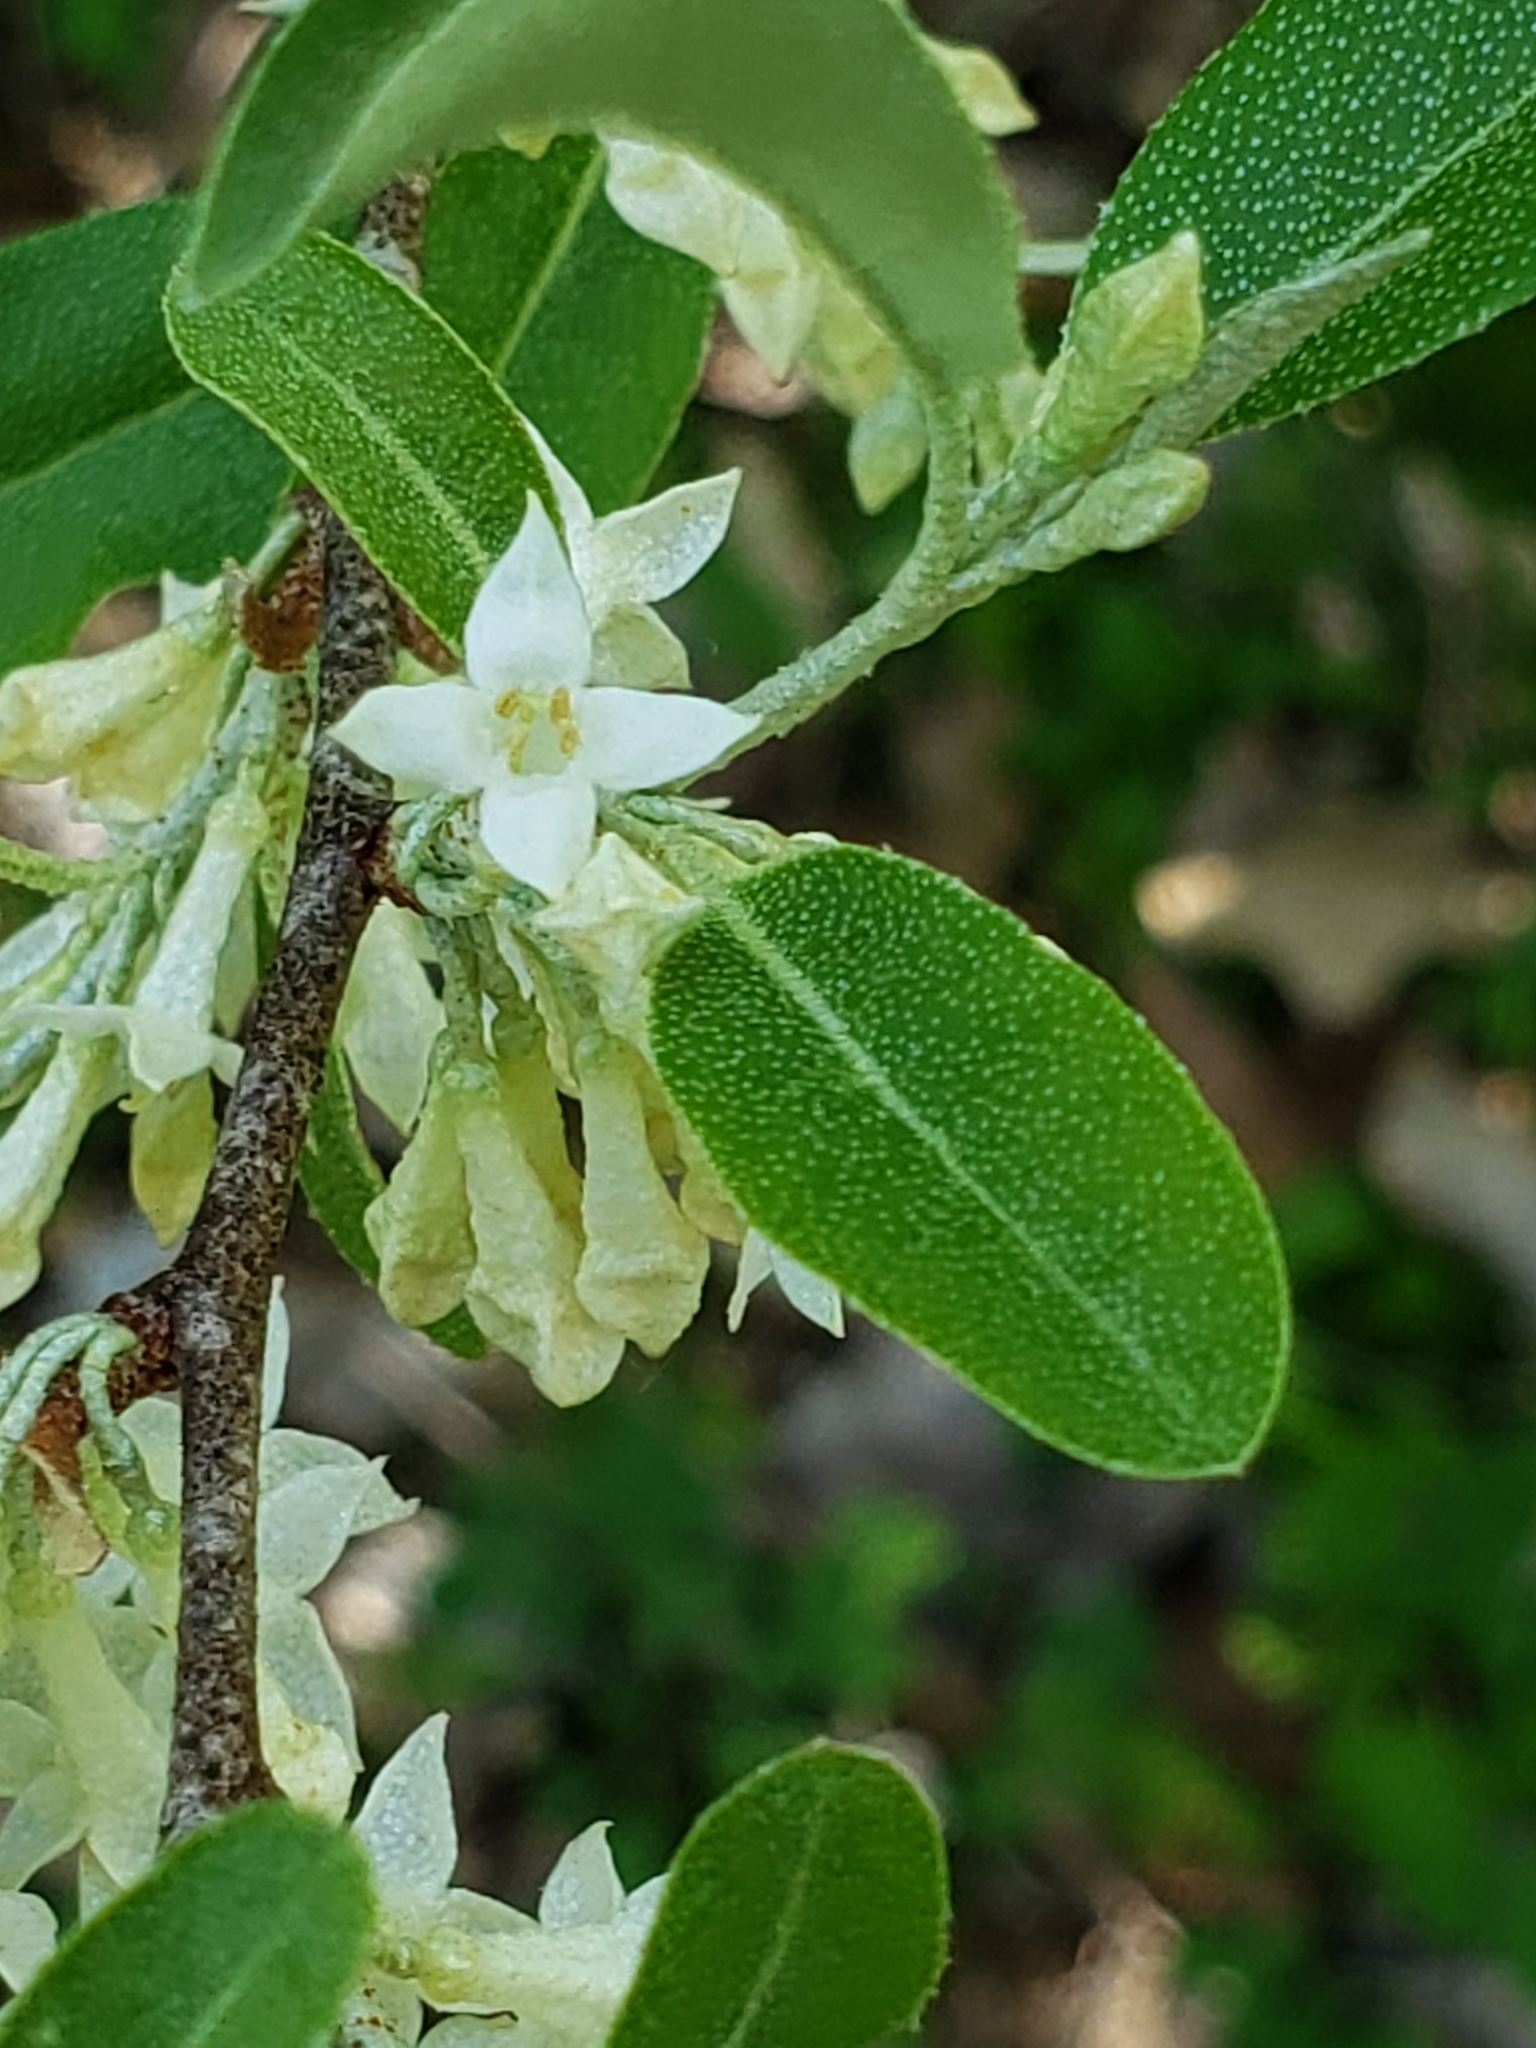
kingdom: Plantae
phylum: Tracheophyta
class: Magnoliopsida
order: Rosales
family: Elaeagnaceae
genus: Elaeagnus
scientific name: Elaeagnus umbellata
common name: Autumn olive
